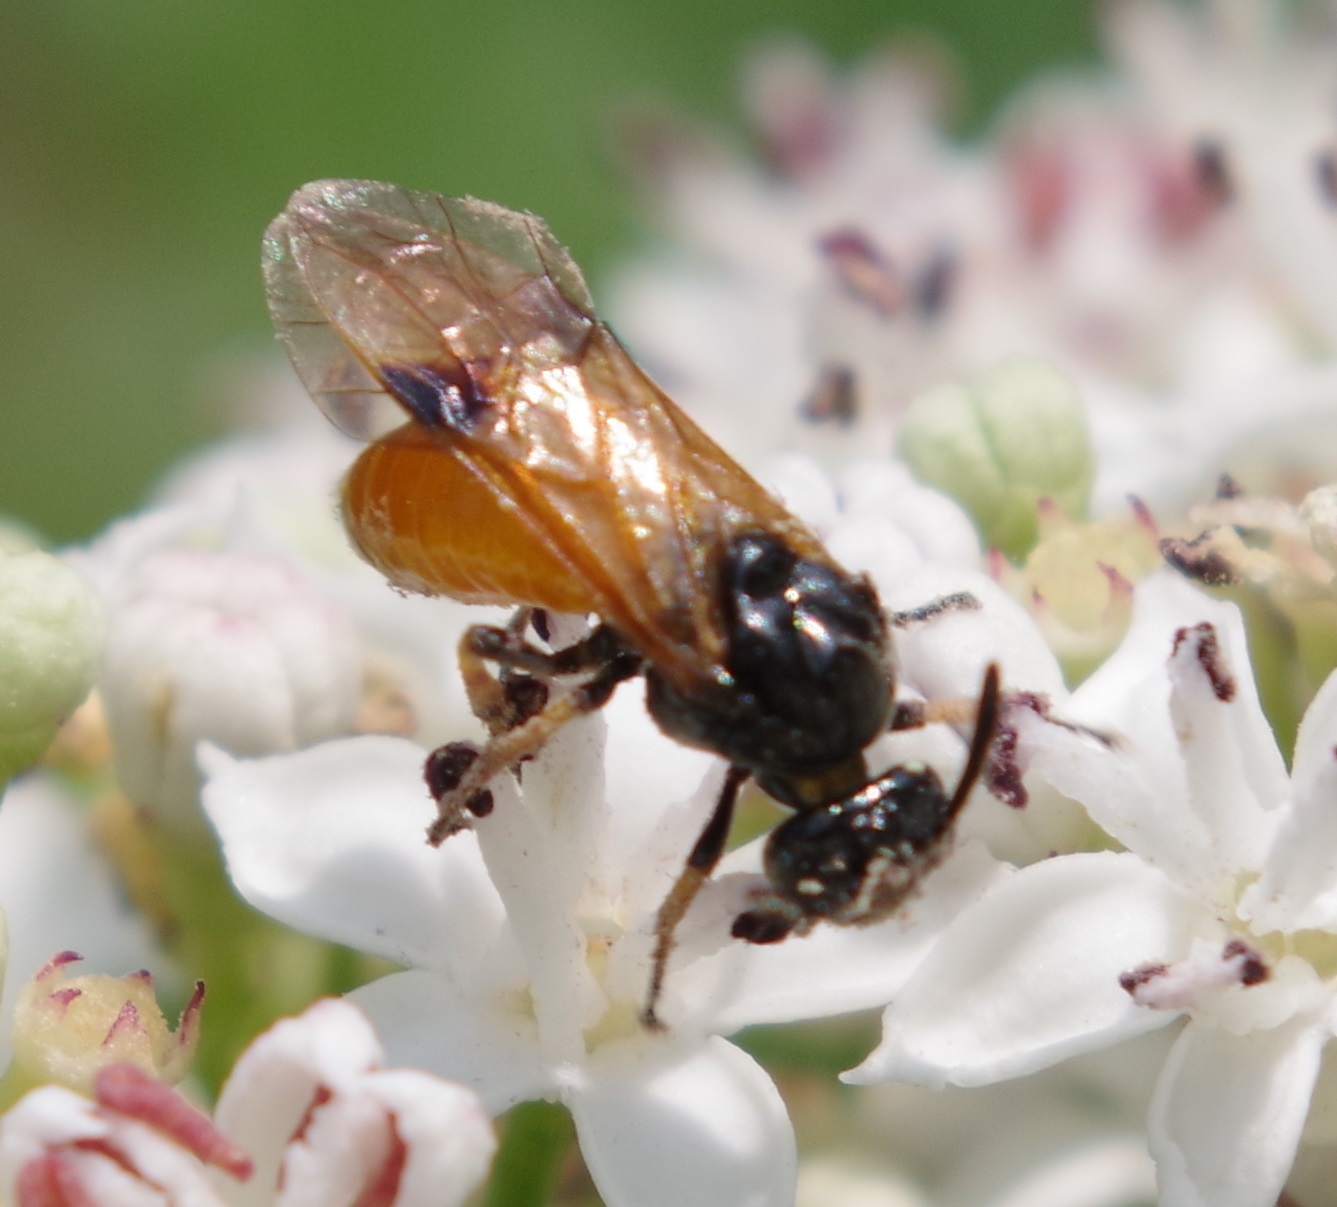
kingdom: Animalia
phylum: Arthropoda
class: Insecta
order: Hymenoptera
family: Argidae
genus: Arge
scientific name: Arge melanochra
